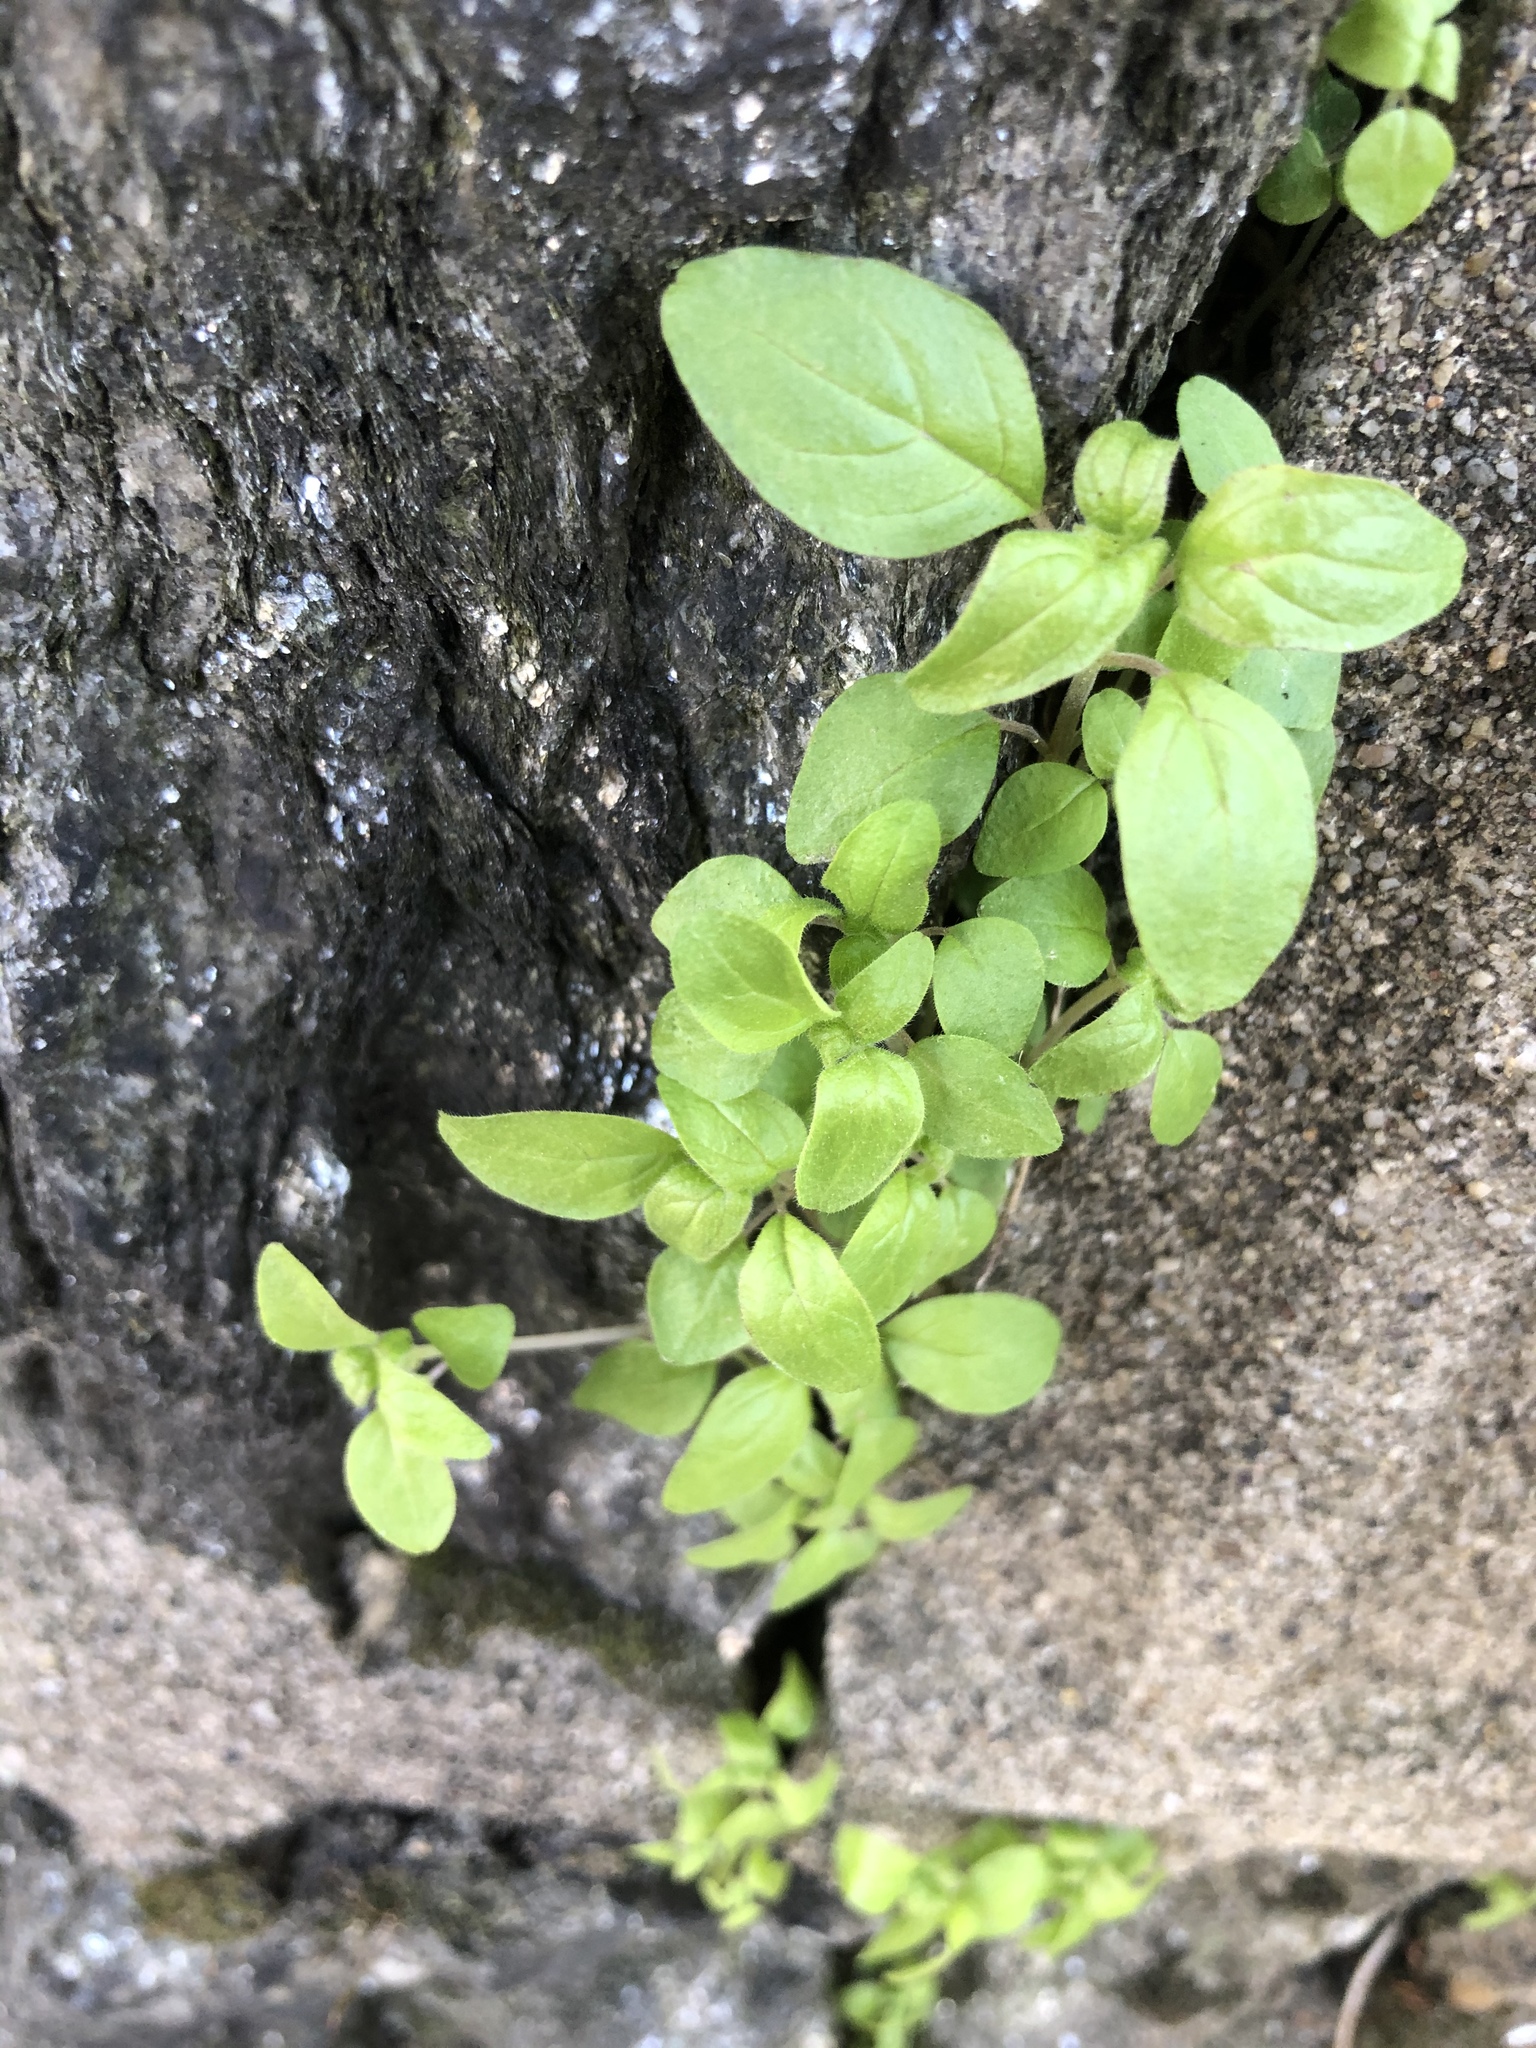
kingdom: Plantae
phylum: Tracheophyta
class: Magnoliopsida
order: Rosales
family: Urticaceae
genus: Parietaria
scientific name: Parietaria pensylvanica
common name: Pennsylvania pellitory
